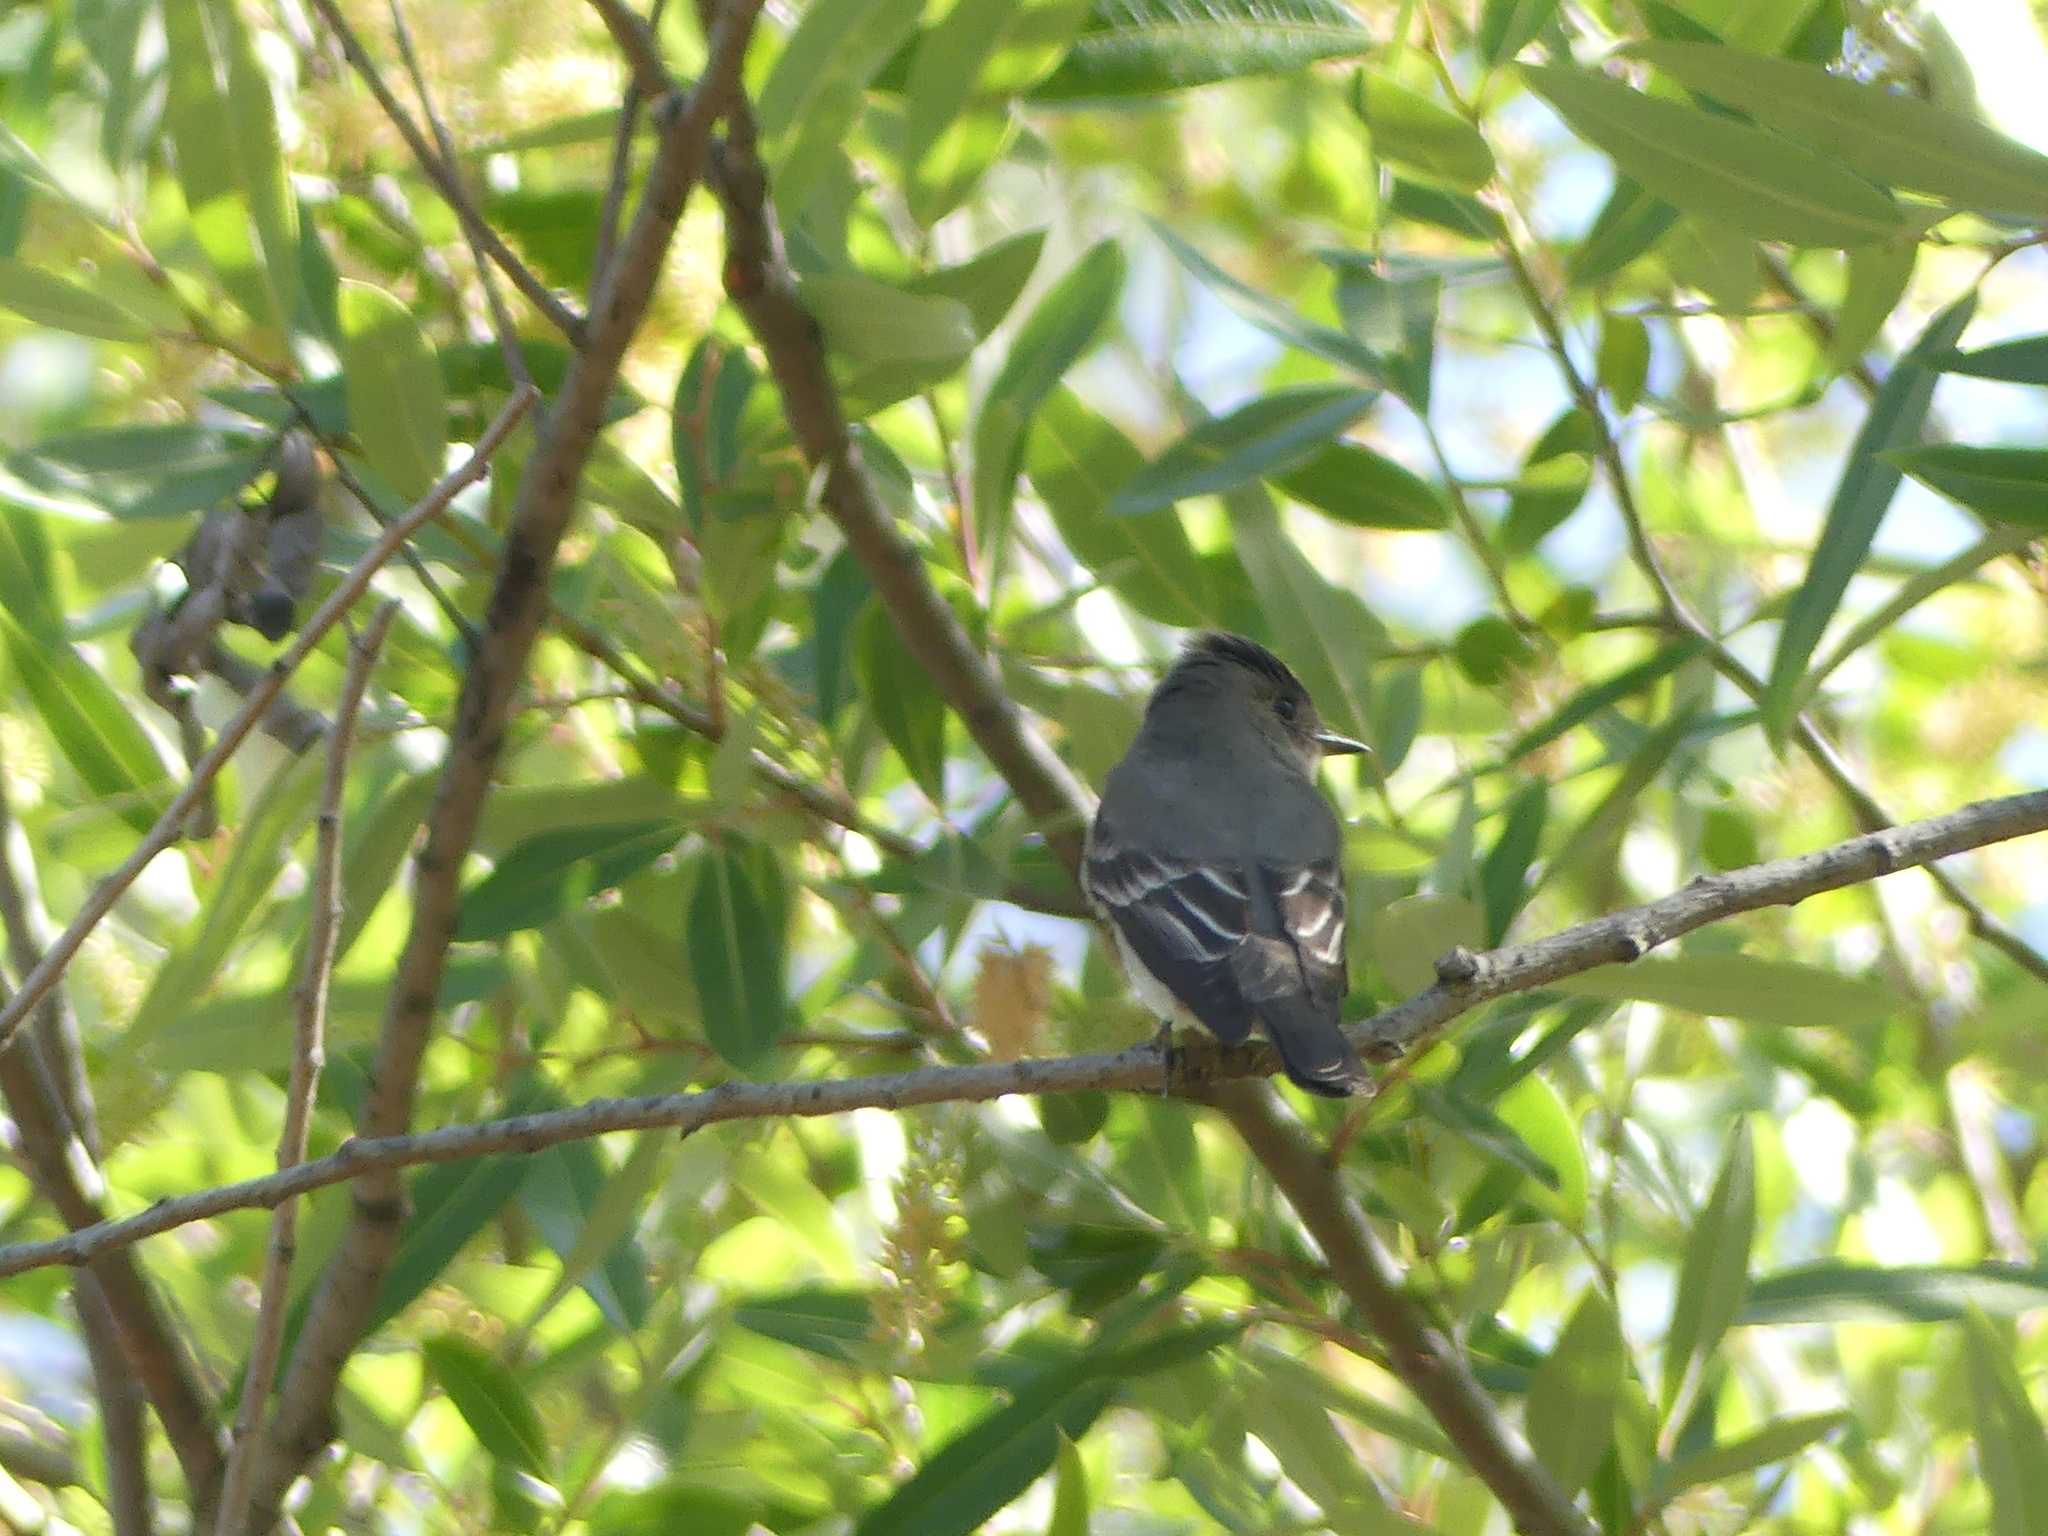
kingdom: Animalia
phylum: Chordata
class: Aves
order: Passeriformes
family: Tyrannidae
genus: Contopus
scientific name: Contopus sordidulus
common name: Western wood-pewee
